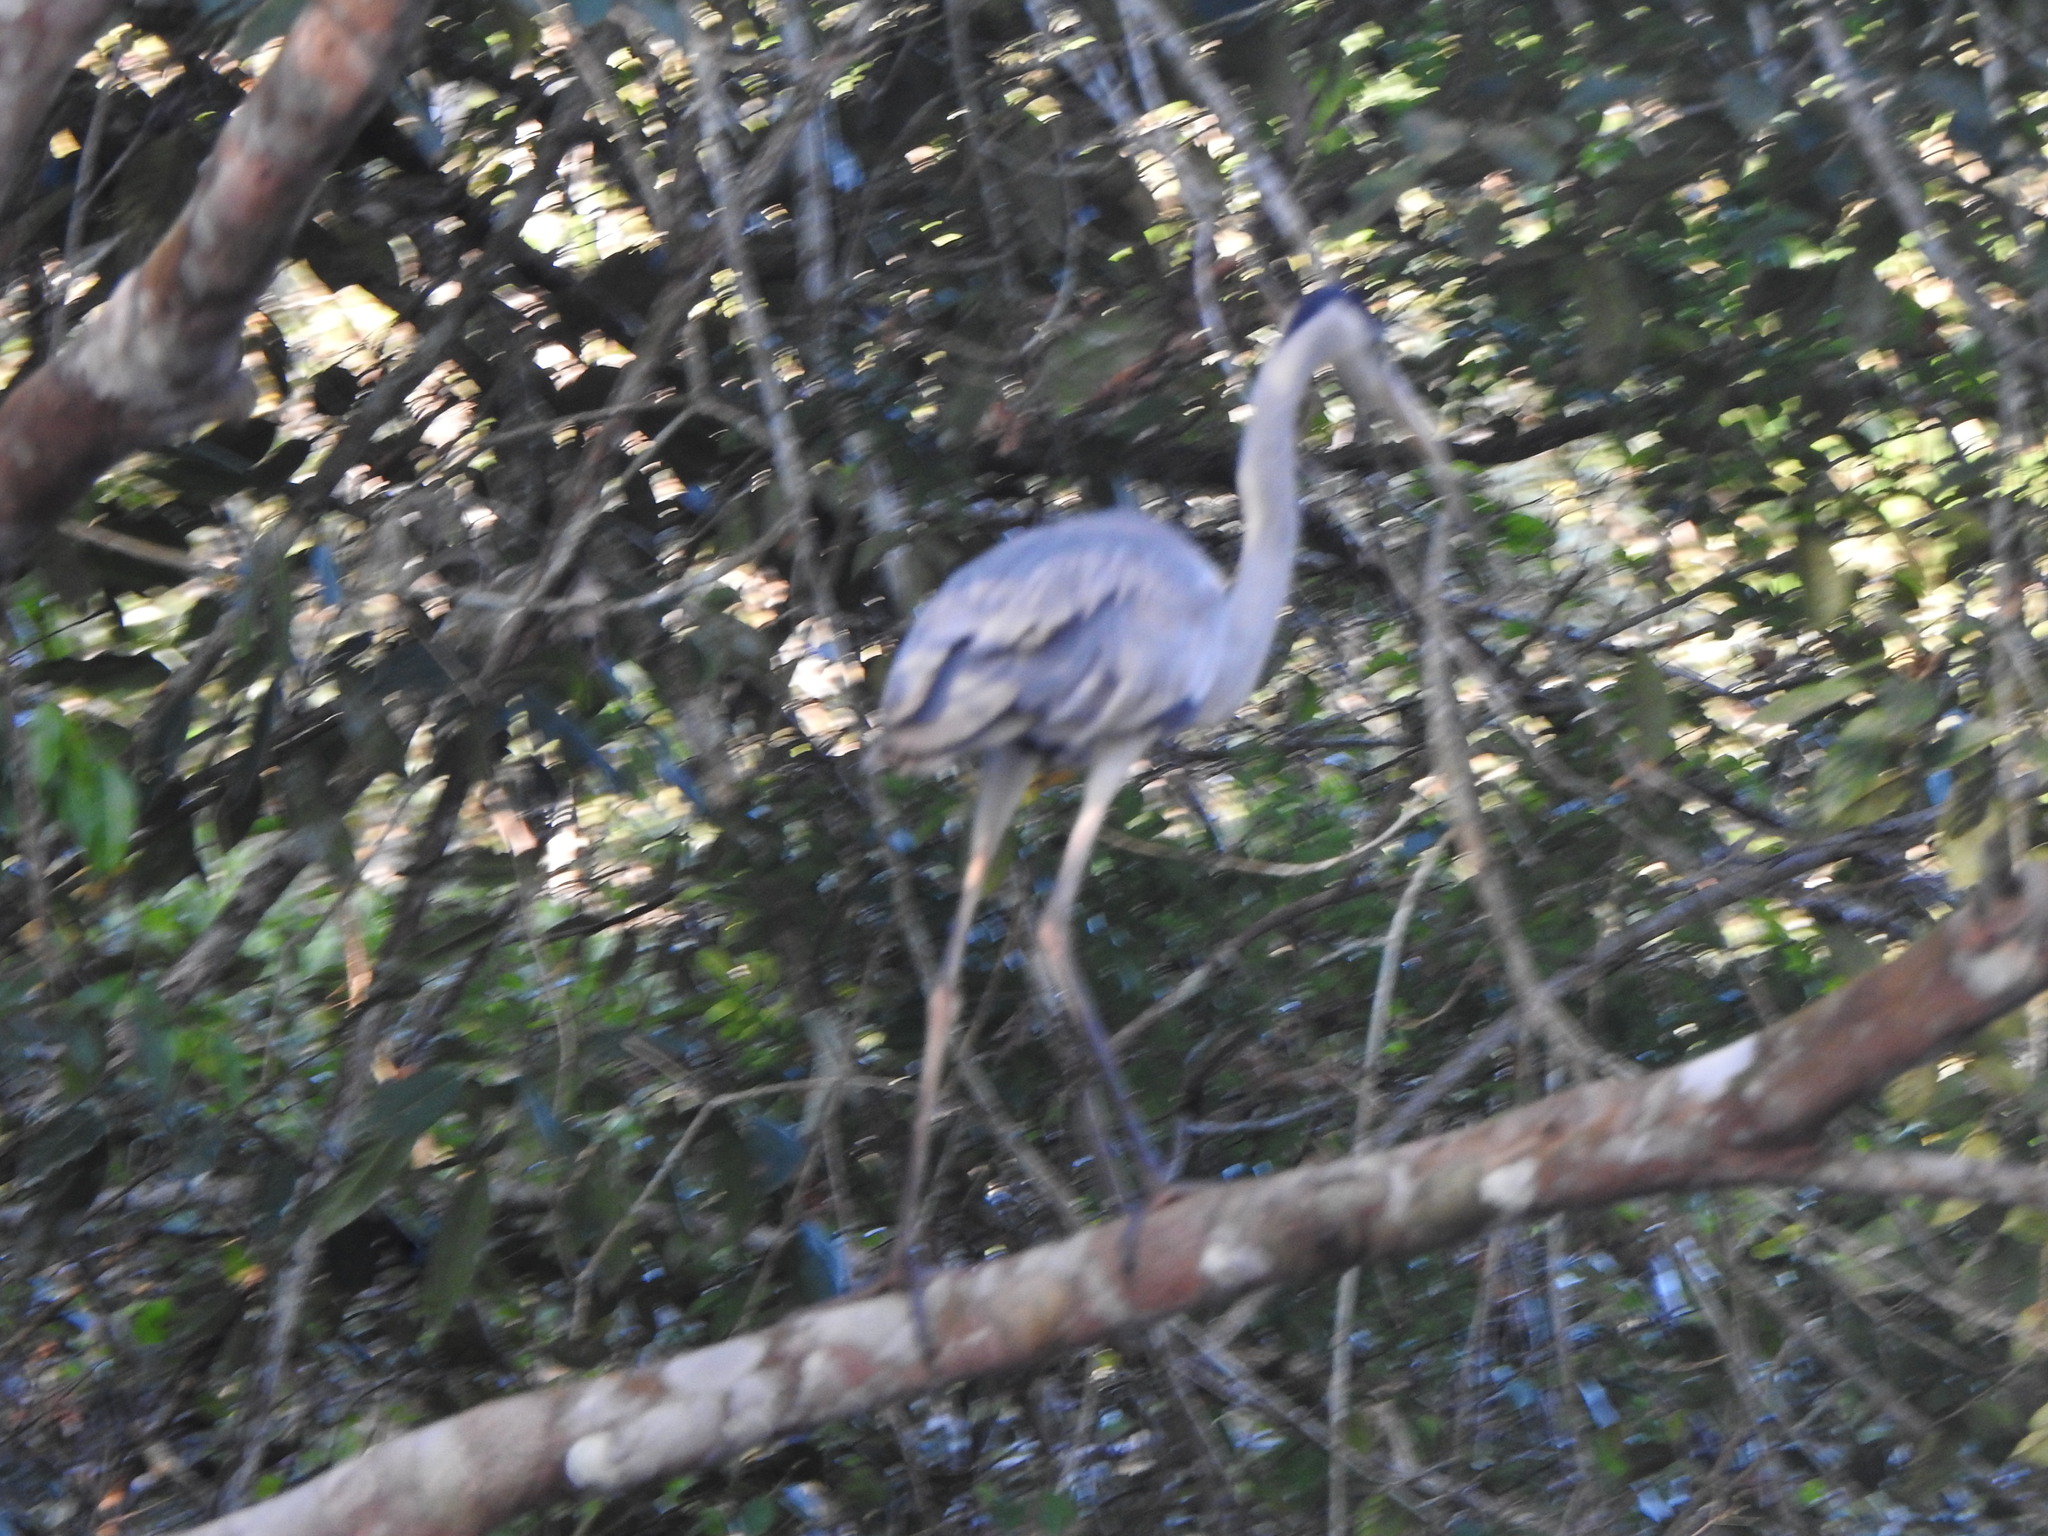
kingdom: Animalia
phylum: Chordata
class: Aves
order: Pelecaniformes
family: Ardeidae
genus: Ardea
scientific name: Ardea cocoi
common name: Cocoi heron
